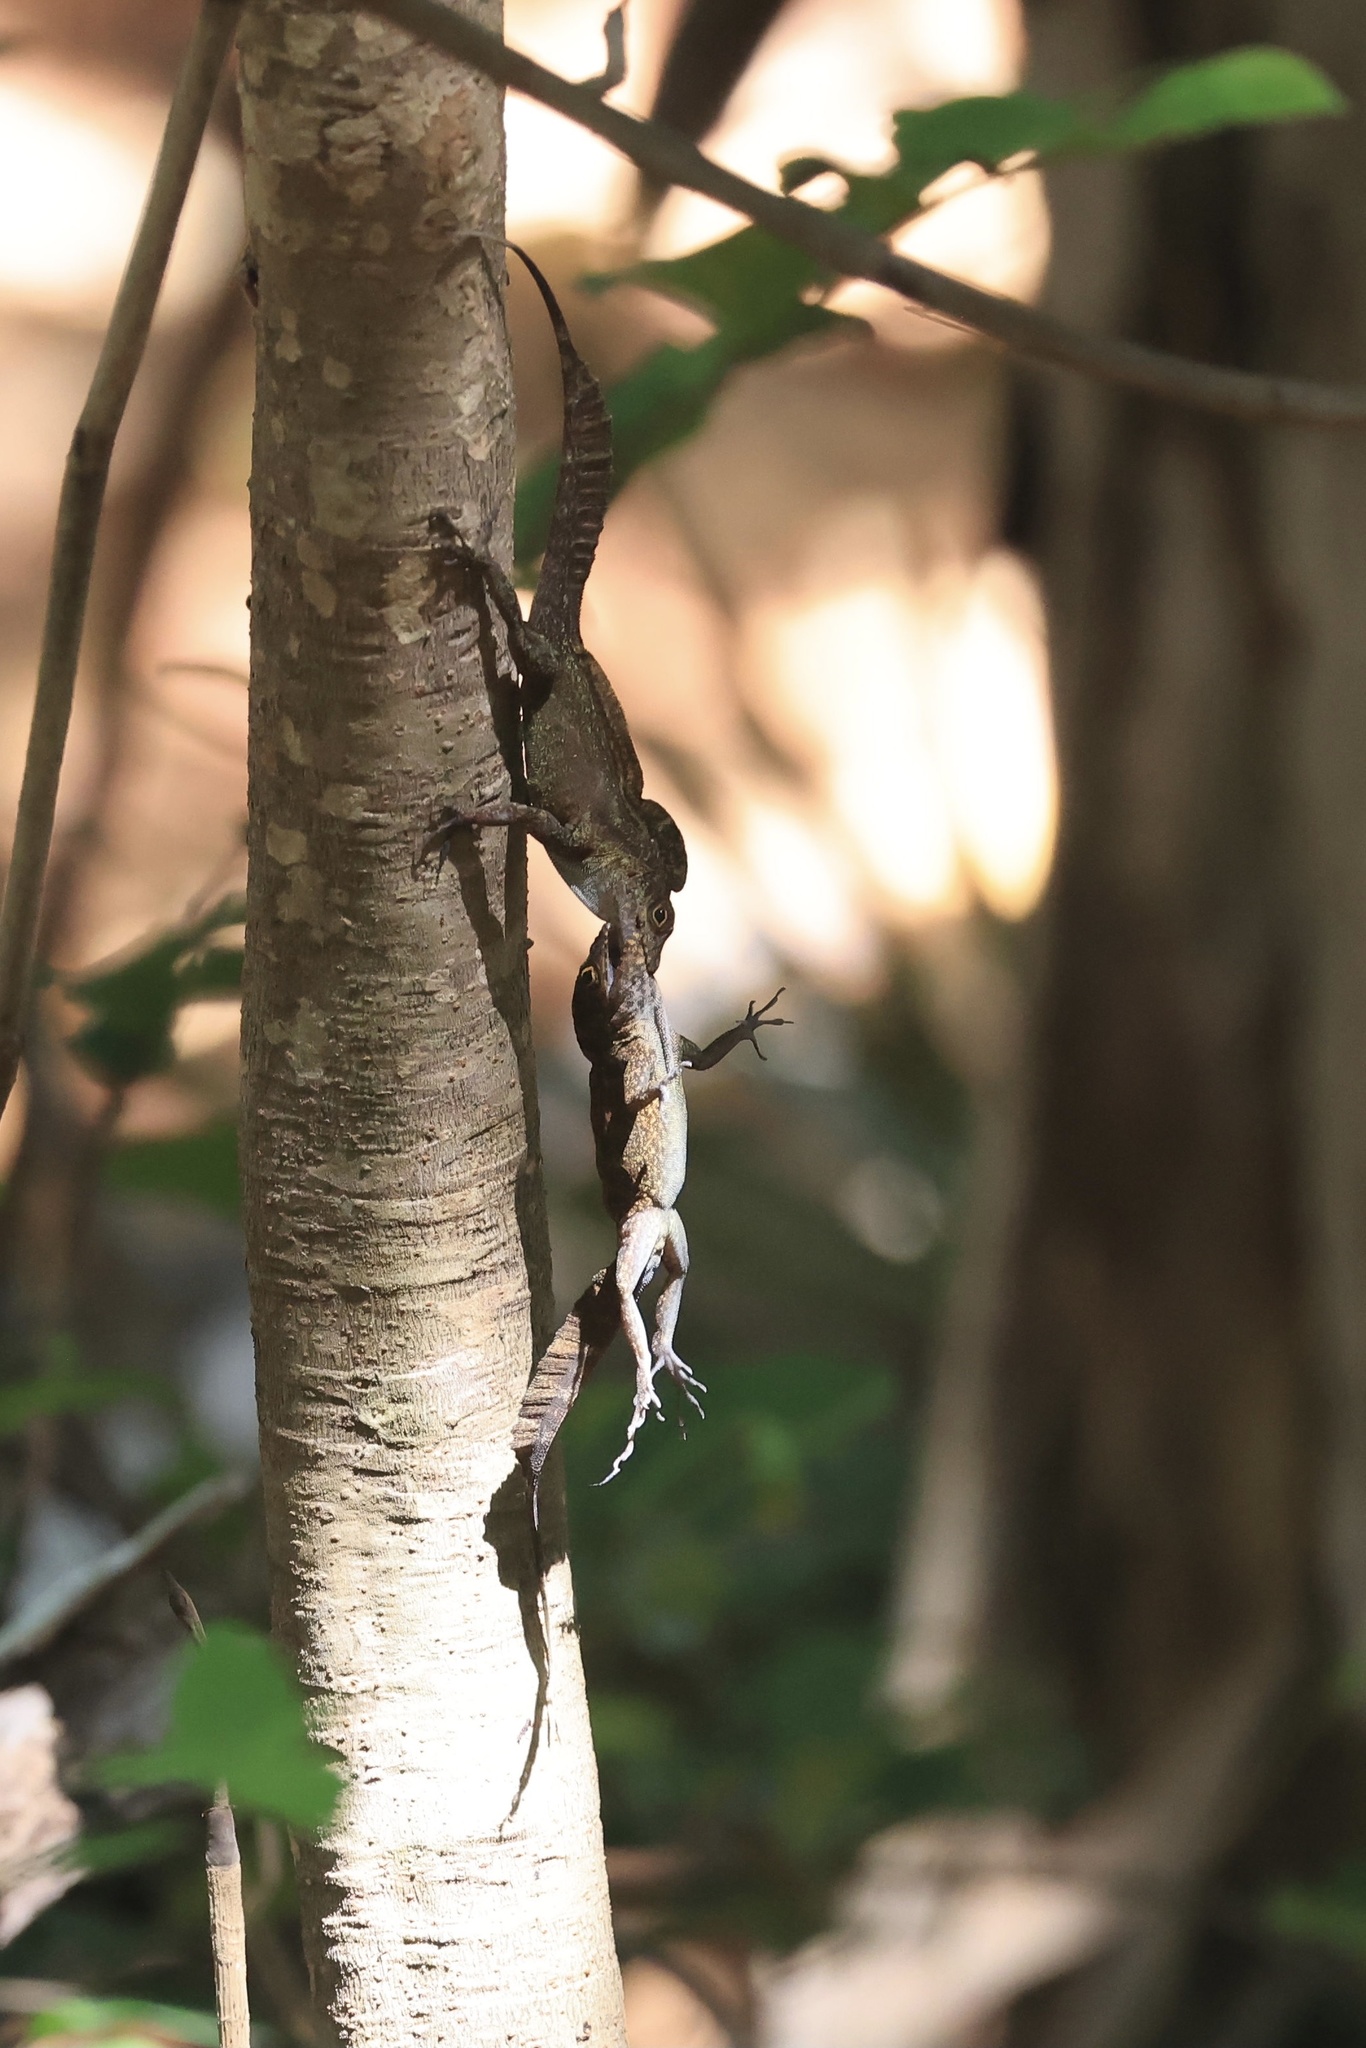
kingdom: Animalia
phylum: Chordata
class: Squamata
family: Dactyloidae
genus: Anolis
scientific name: Anolis cristatellus
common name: Crested anole
